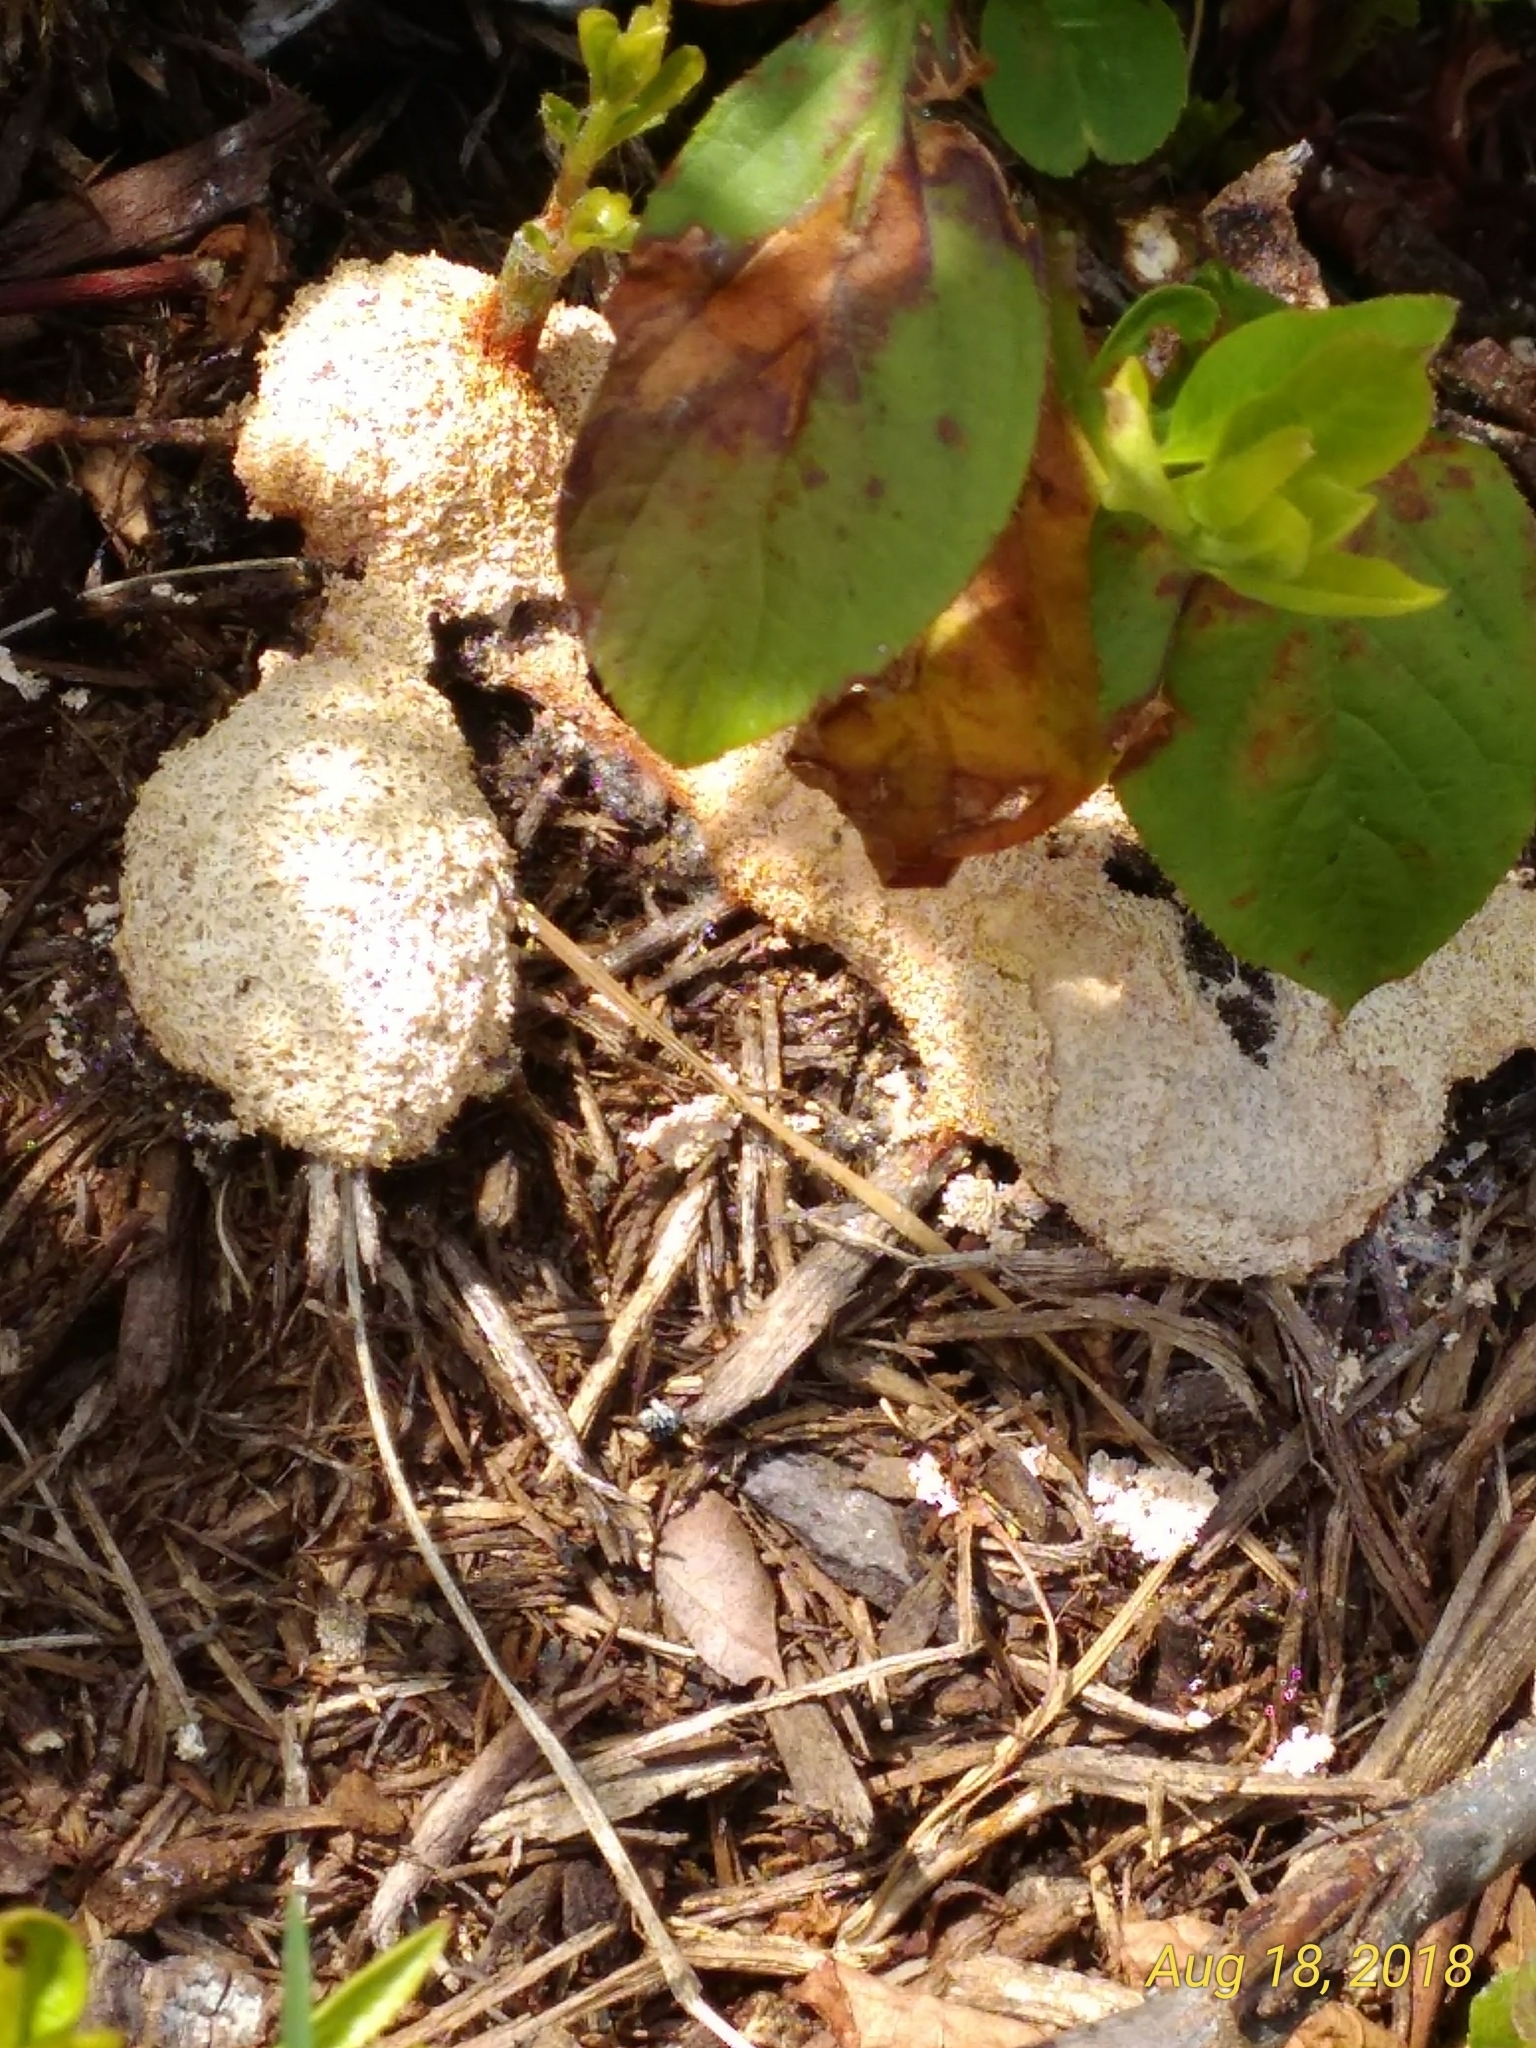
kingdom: Protozoa
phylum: Mycetozoa
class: Myxomycetes
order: Physarales
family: Physaraceae
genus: Fuligo
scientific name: Fuligo septica
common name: Dog vomit slime mold
